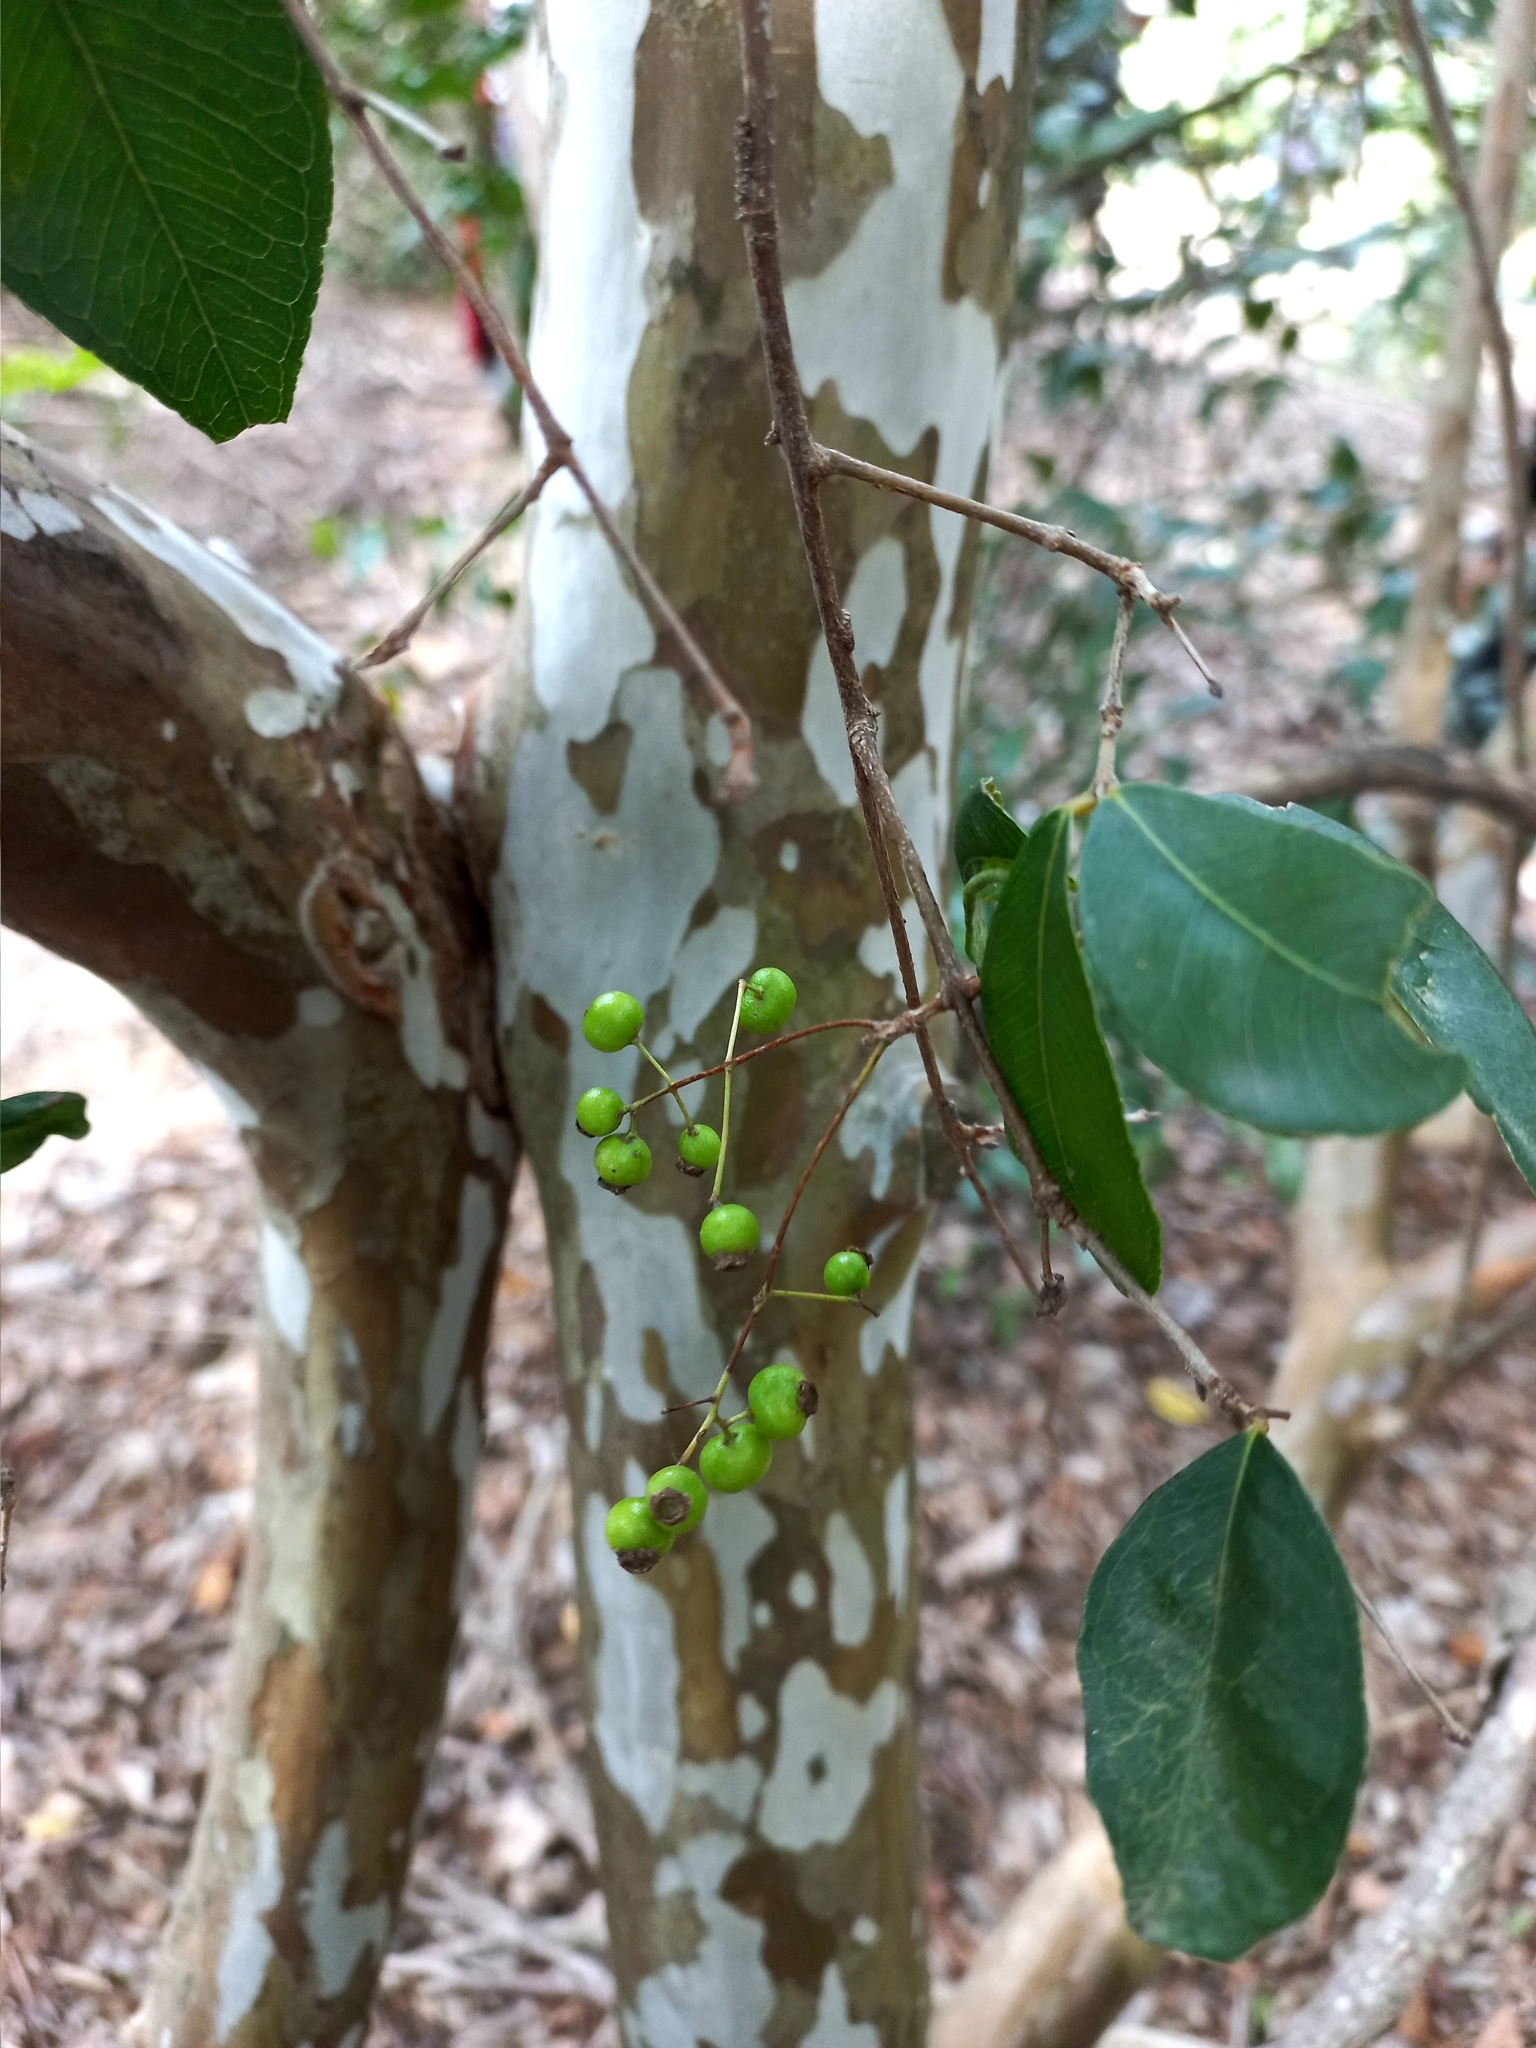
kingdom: Plantae
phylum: Tracheophyta
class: Magnoliopsida
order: Myrtales
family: Myrtaceae
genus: Myrcia
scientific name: Myrcia selloi
